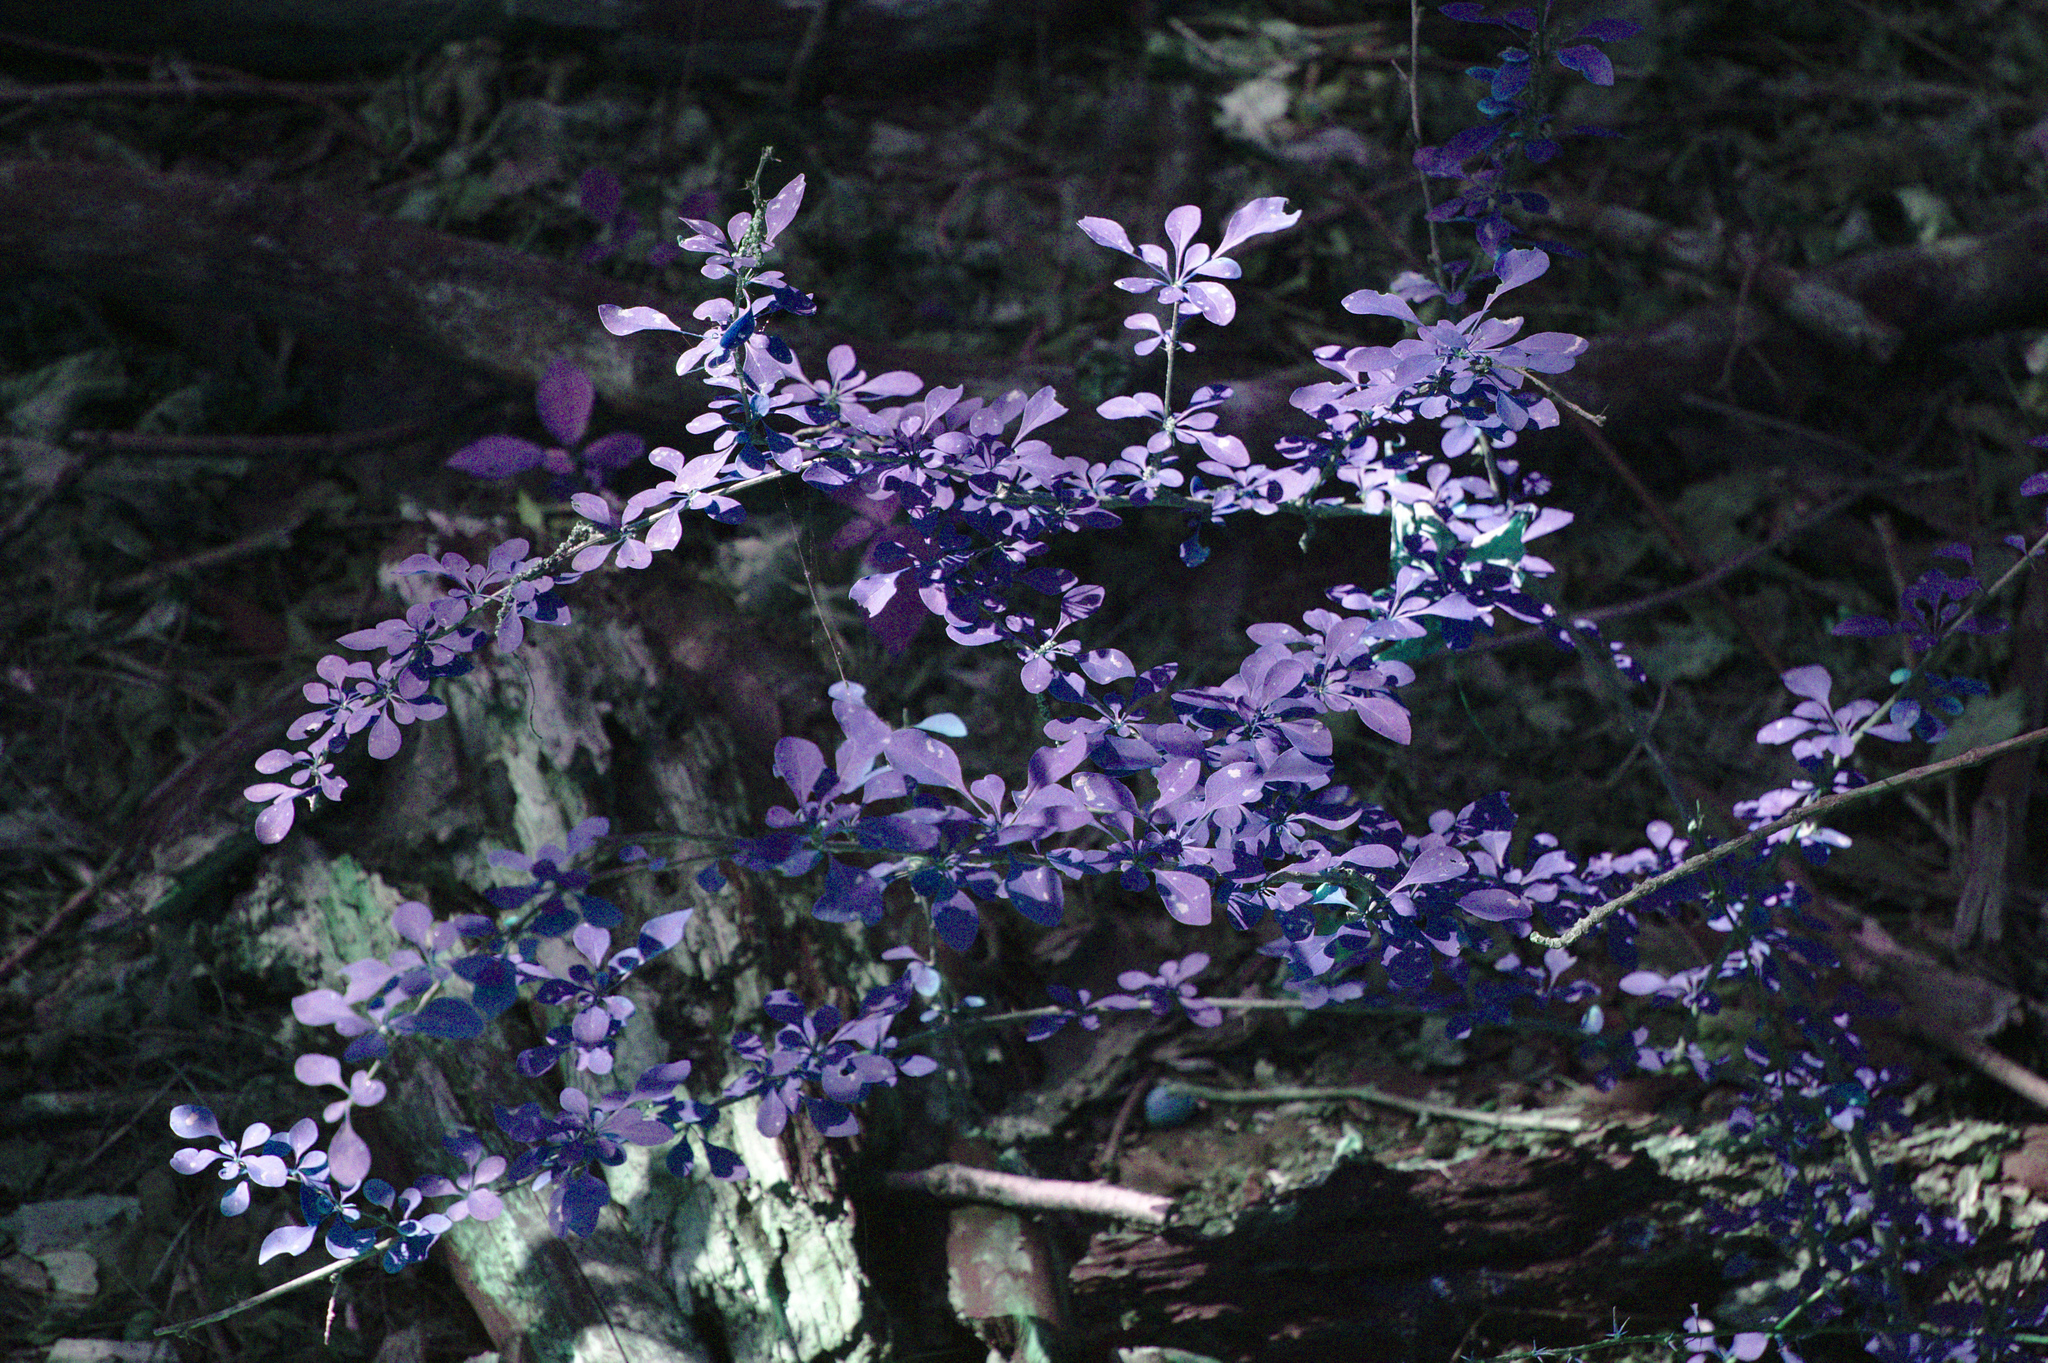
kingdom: Plantae
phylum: Tracheophyta
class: Magnoliopsida
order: Ranunculales
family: Berberidaceae
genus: Berberis
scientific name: Berberis thunbergii
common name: Japanese barberry
